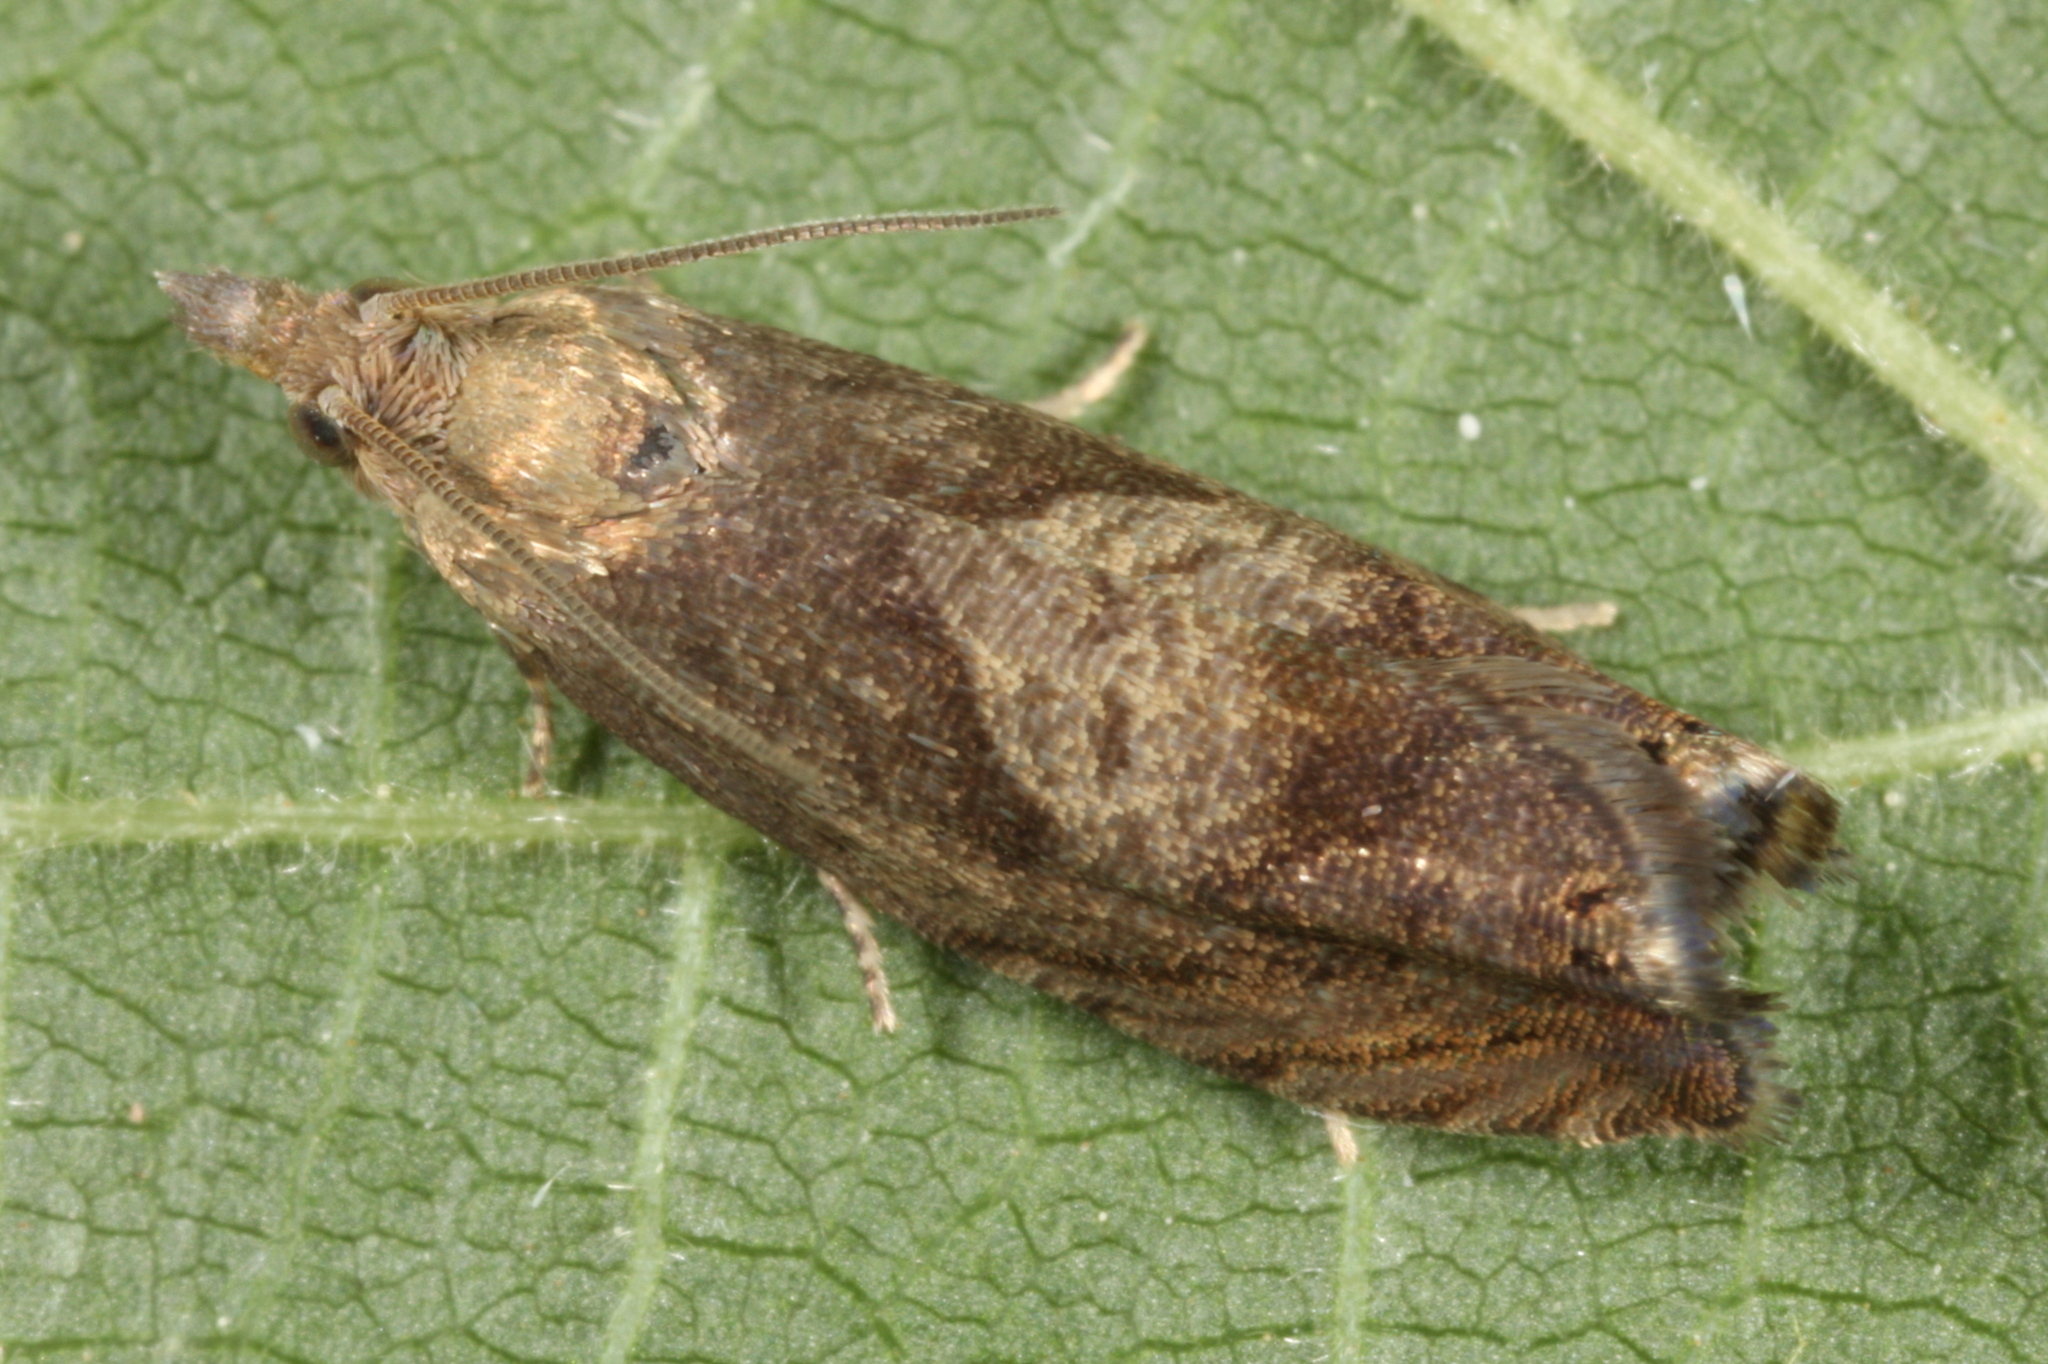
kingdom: Animalia
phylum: Arthropoda
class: Insecta
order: Lepidoptera
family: Tortricidae
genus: Dichrorampha
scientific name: Dichrorampha simpliciana
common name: Round-winged drill
